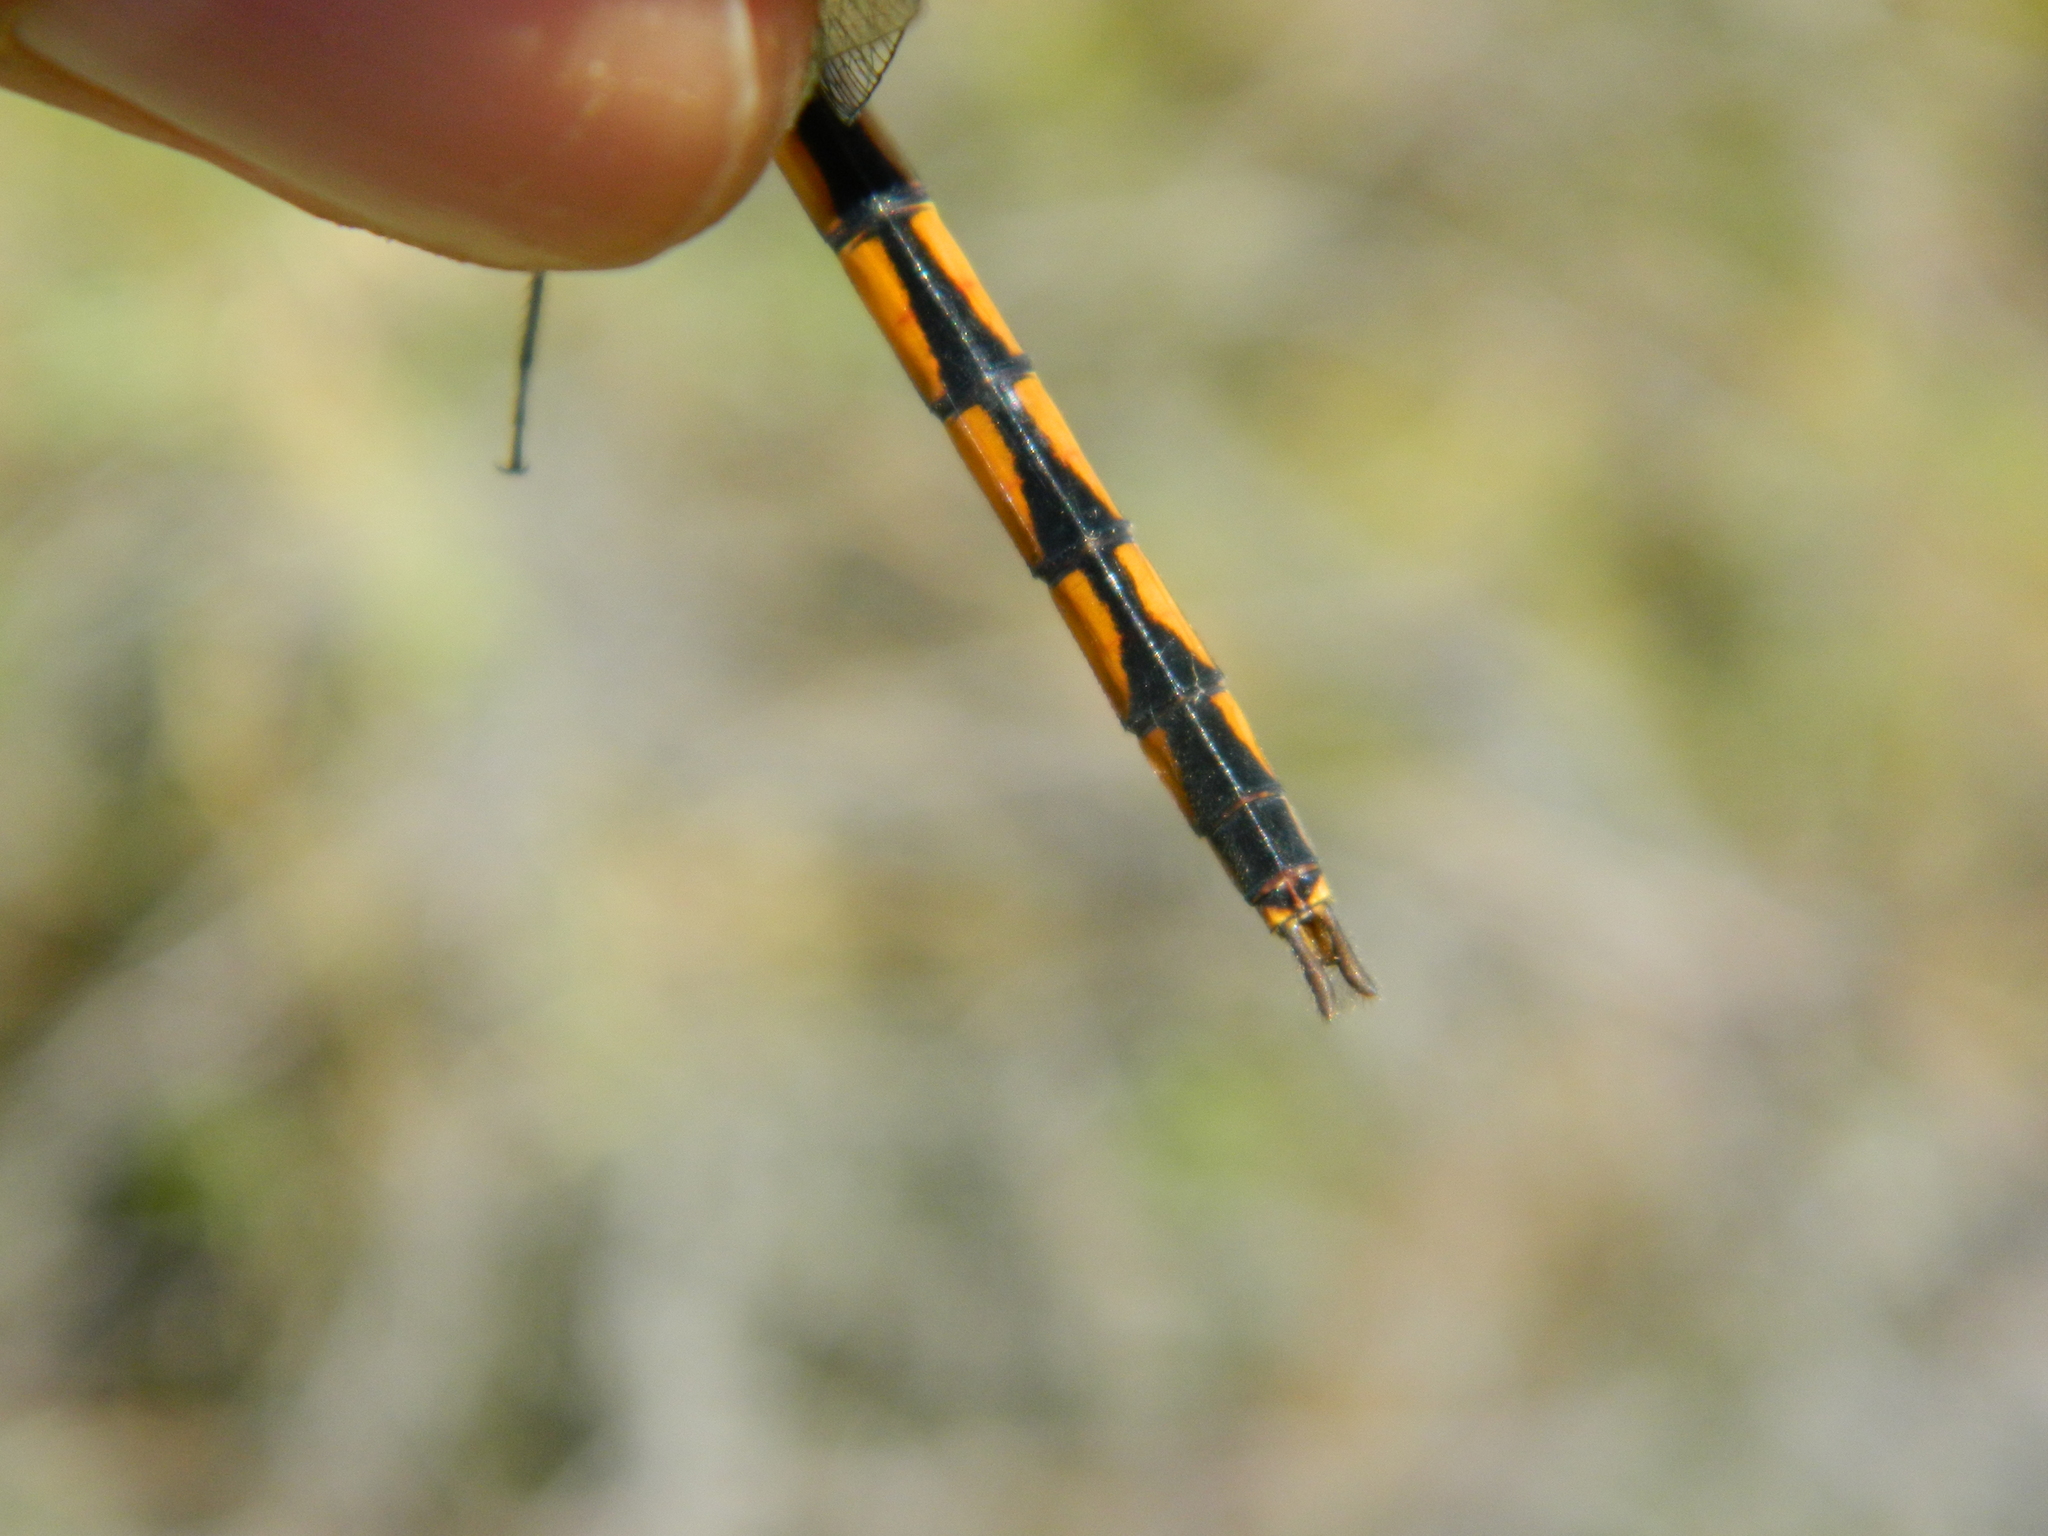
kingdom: Animalia
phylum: Arthropoda
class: Insecta
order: Odonata
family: Libellulidae
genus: Brachymesia
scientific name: Brachymesia herbida
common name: Tawny pennant
